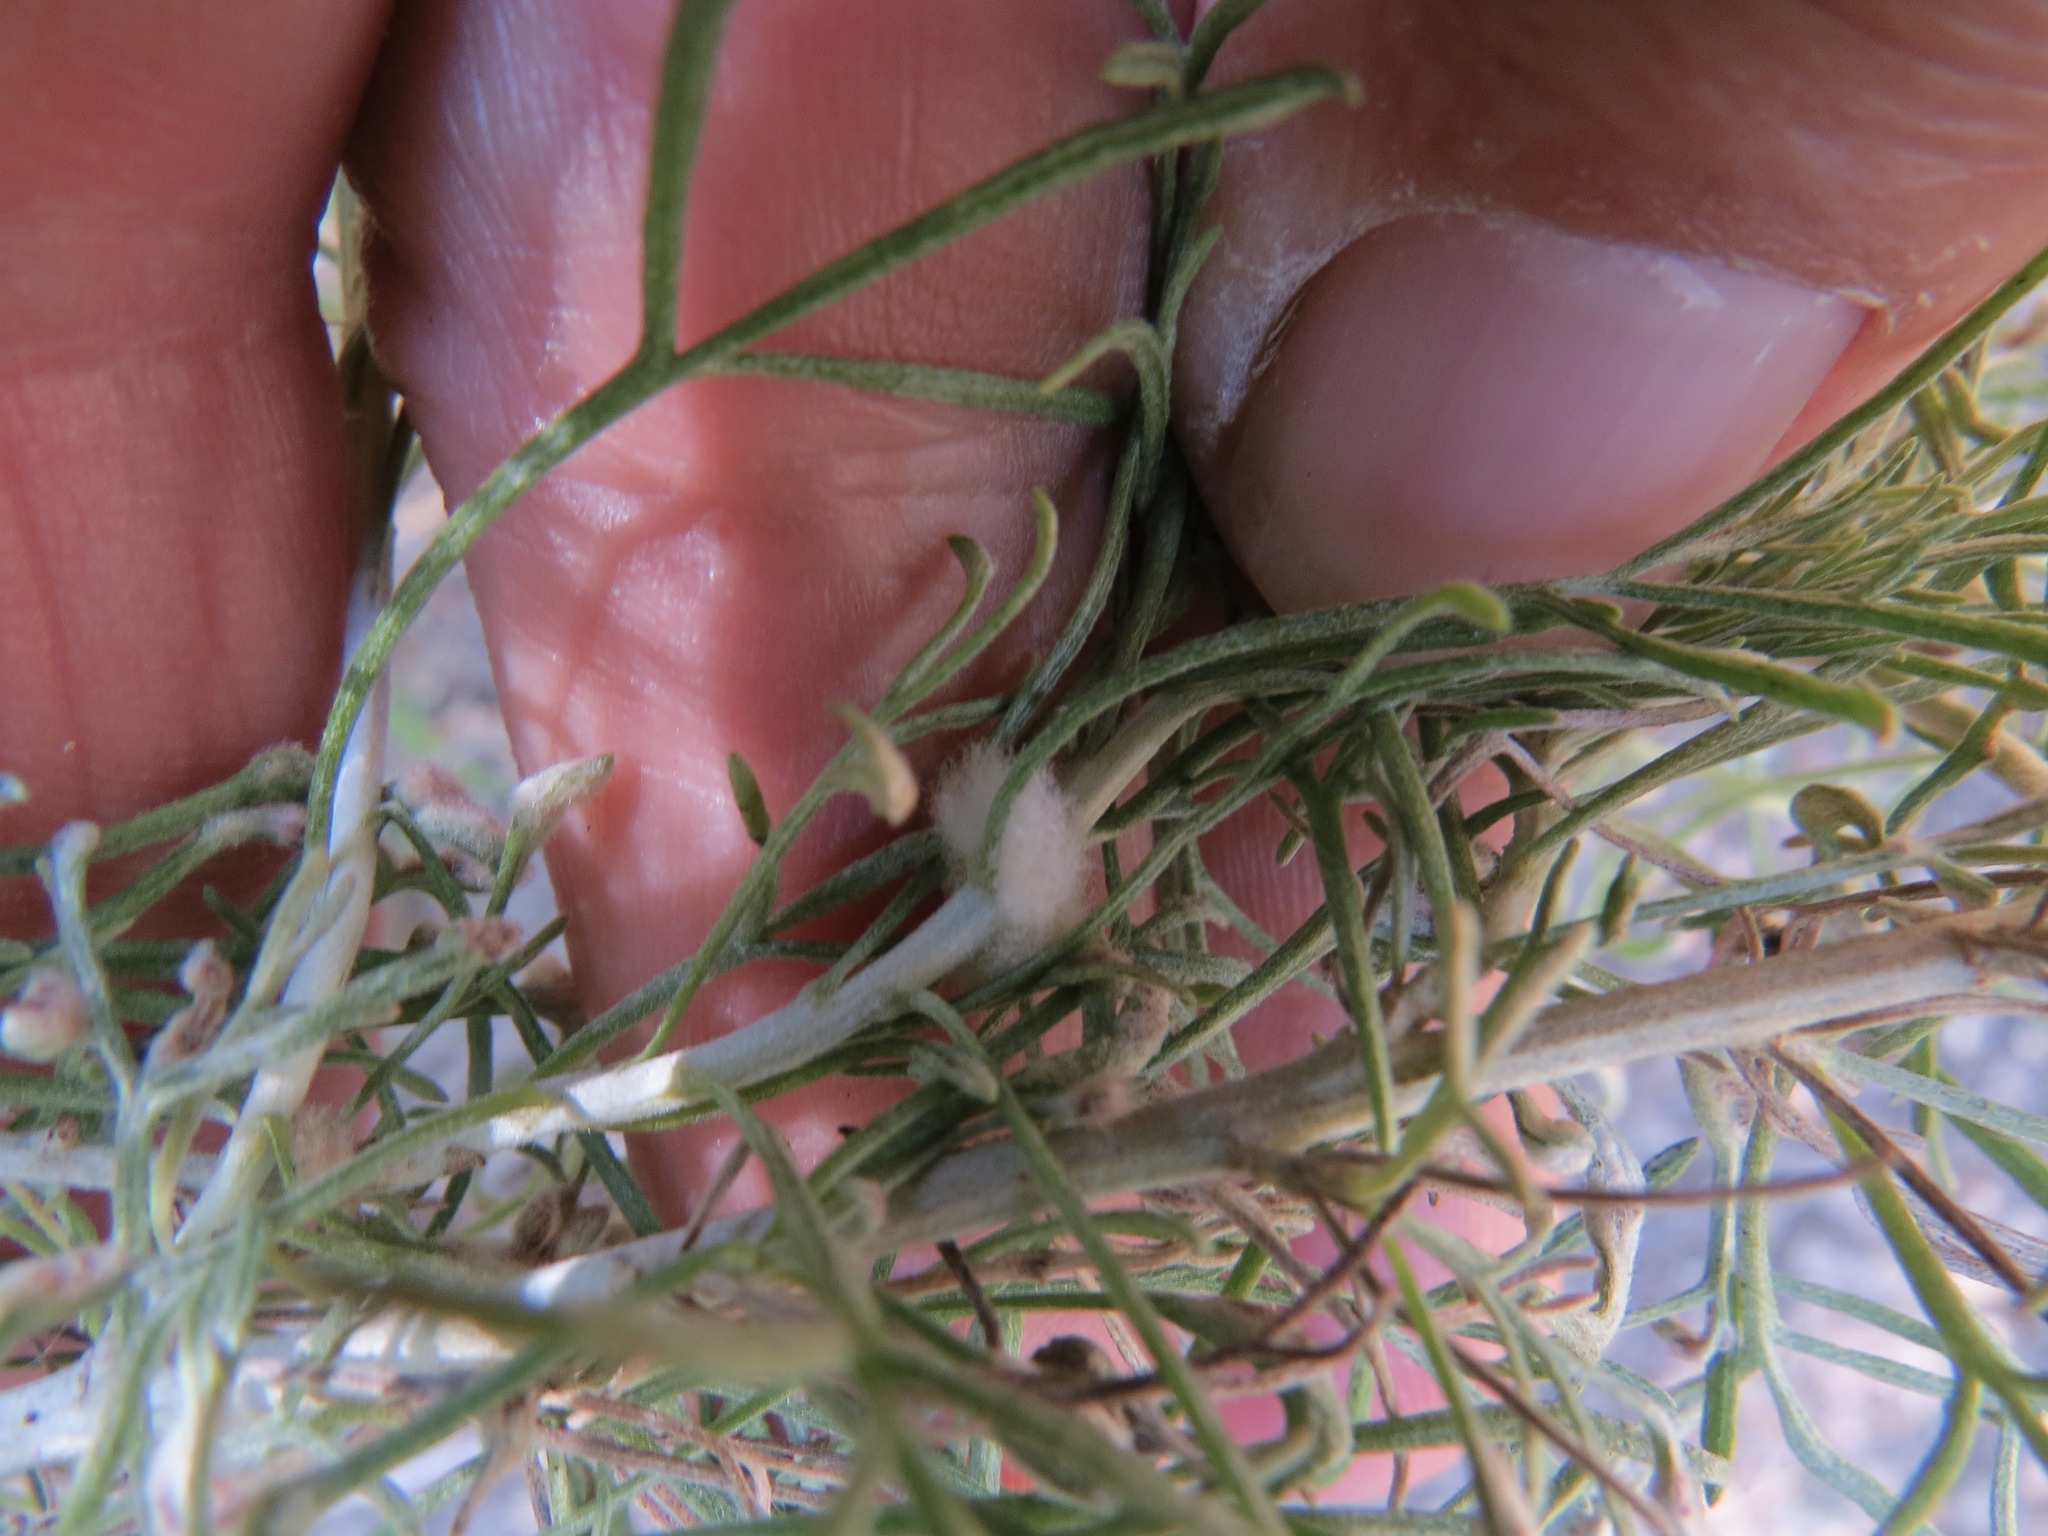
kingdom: Animalia
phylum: Arthropoda
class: Insecta
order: Diptera
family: Cecidomyiidae
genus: Rhopalomyia
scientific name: Rhopalomyia floccosa
